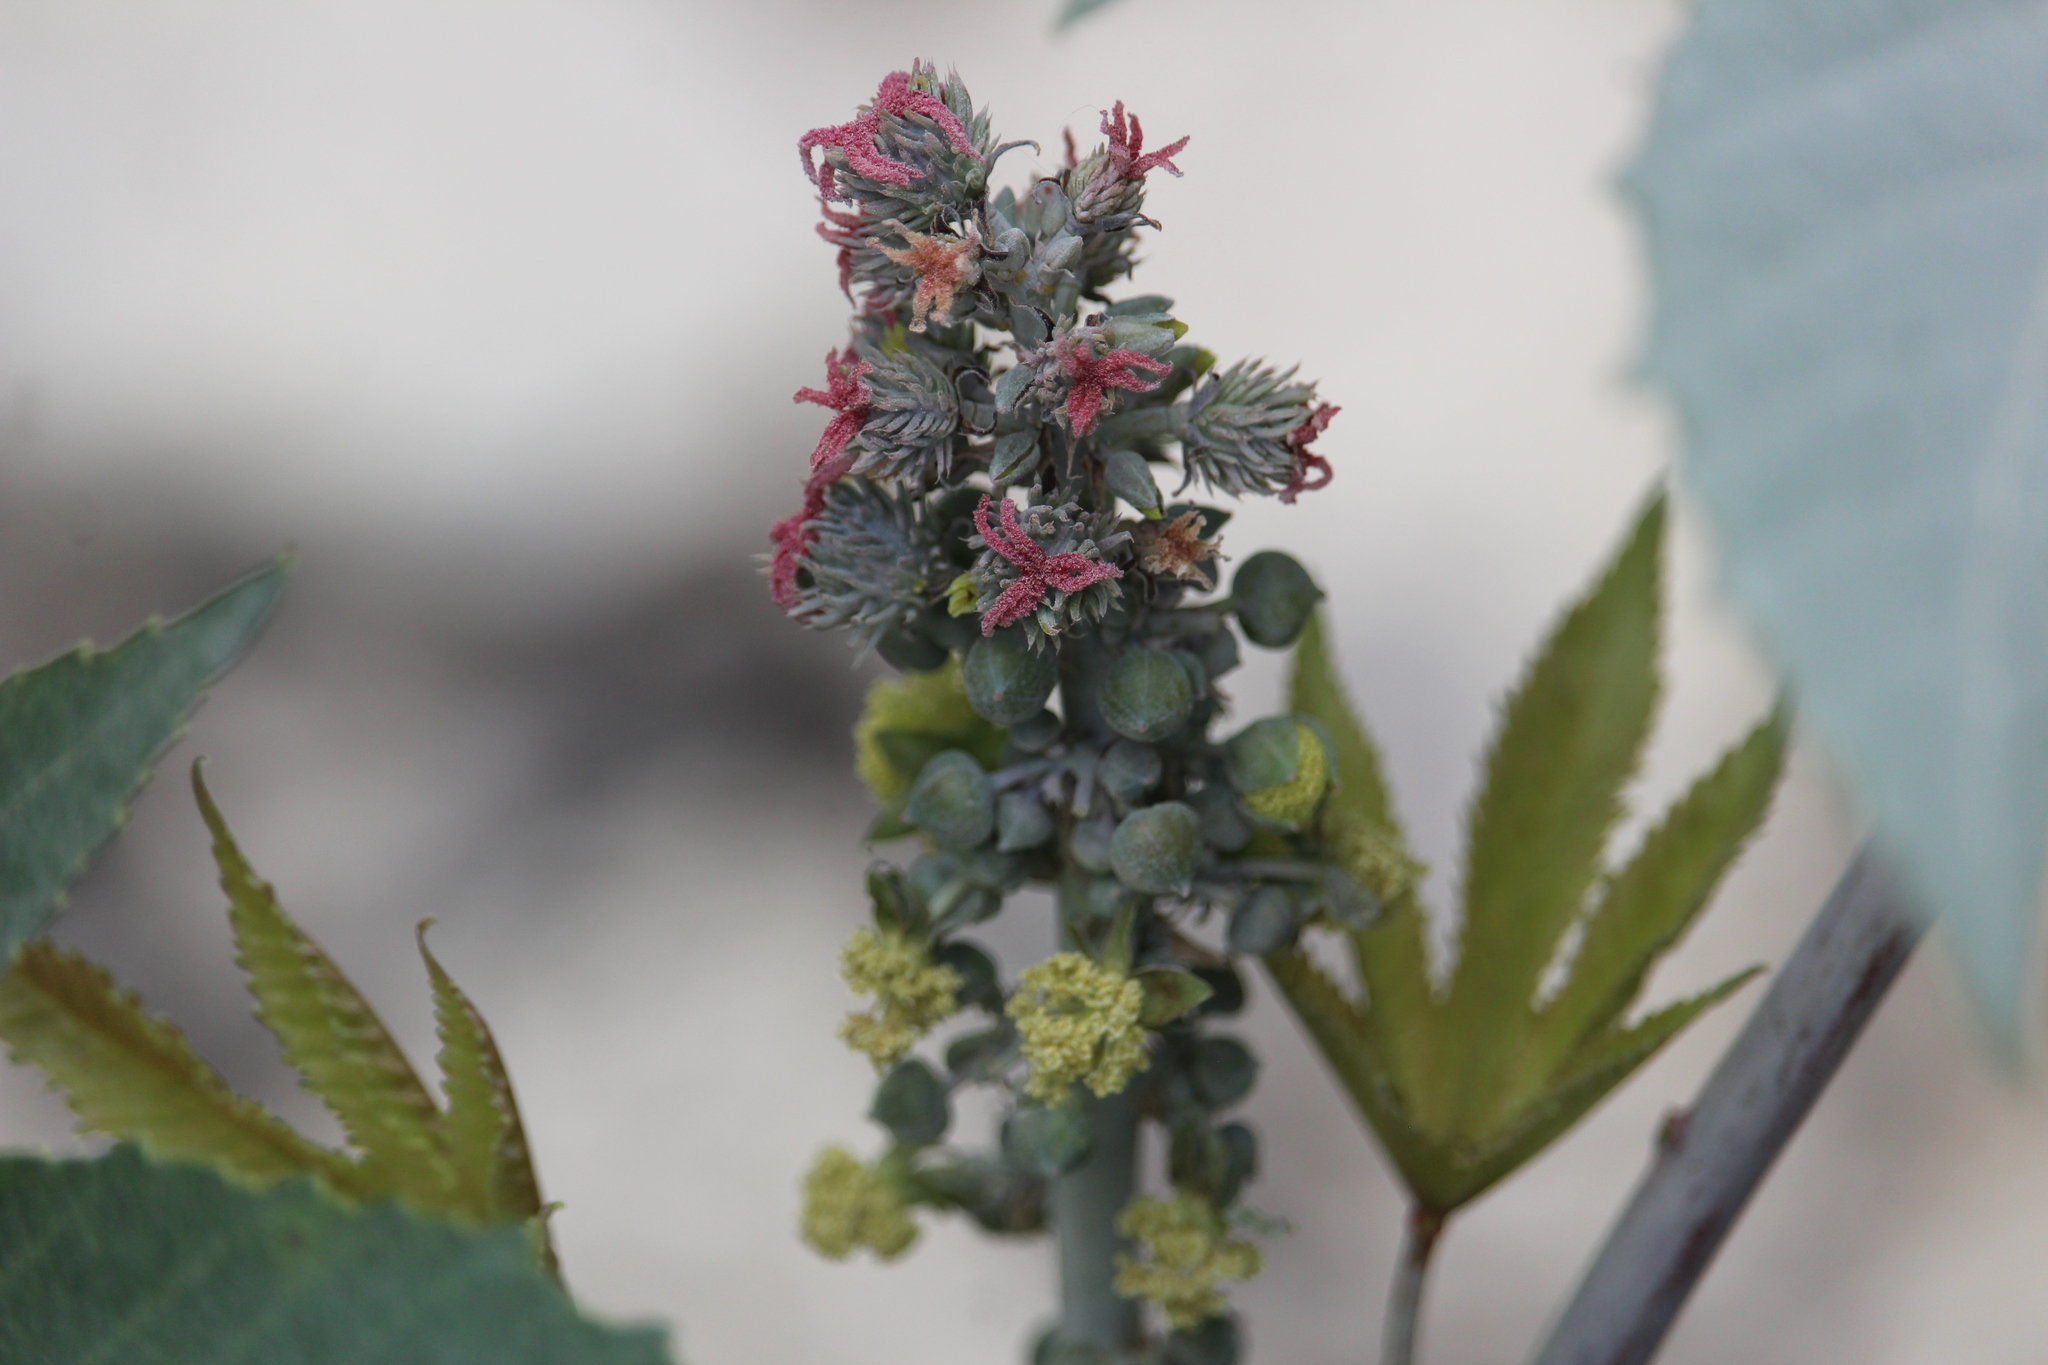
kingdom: Plantae
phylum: Tracheophyta
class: Magnoliopsida
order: Malpighiales
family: Euphorbiaceae
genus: Ricinus
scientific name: Ricinus communis
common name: Castor-oil-plant
